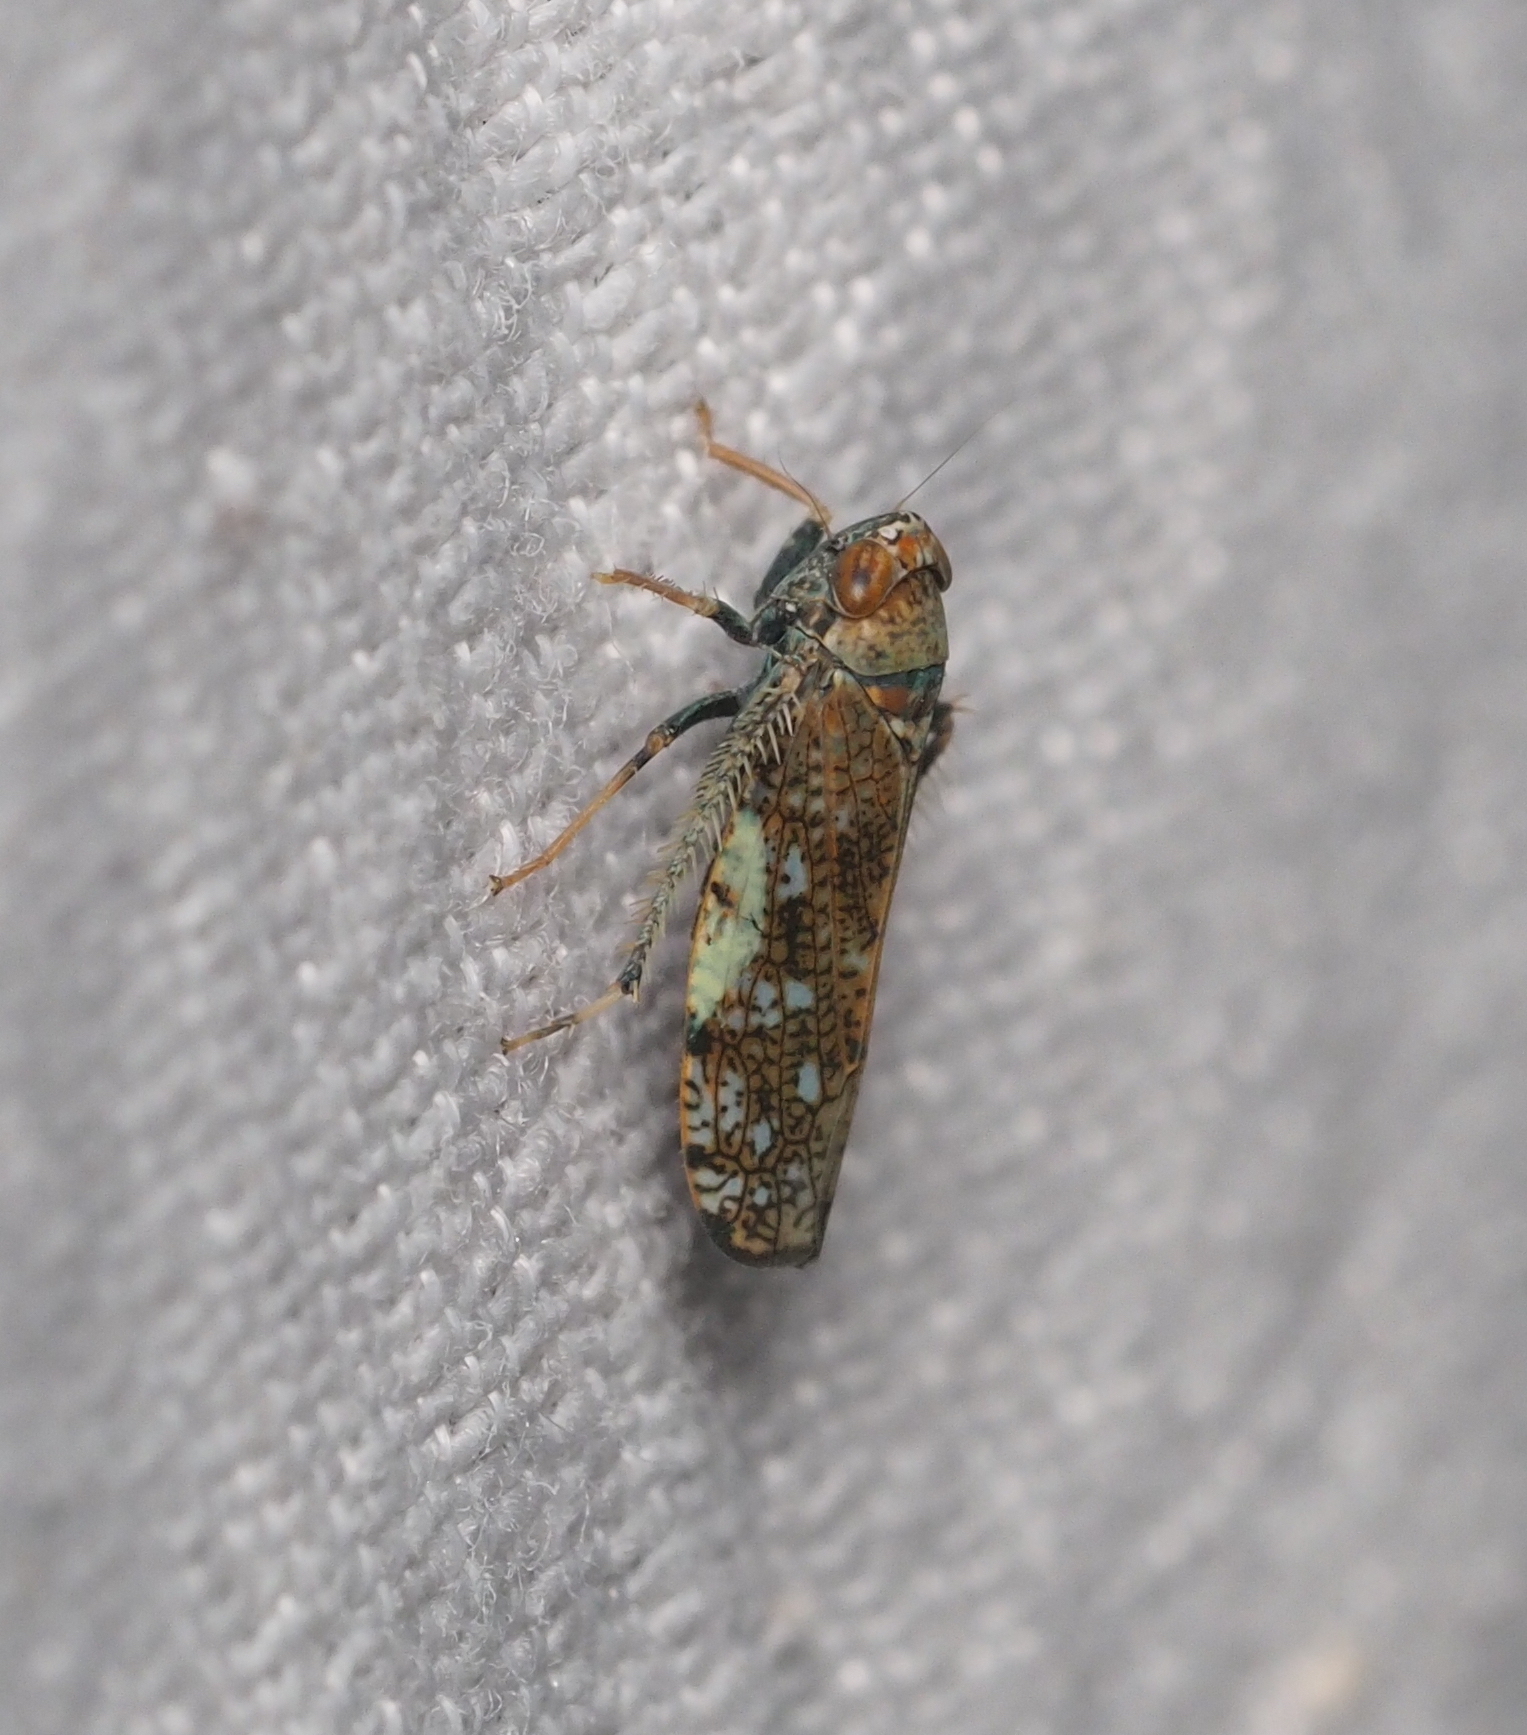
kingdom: Animalia
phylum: Arthropoda
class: Insecta
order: Hemiptera
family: Cicadellidae
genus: Orientus
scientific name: Orientus ishidae
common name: Japanese leafhopper
